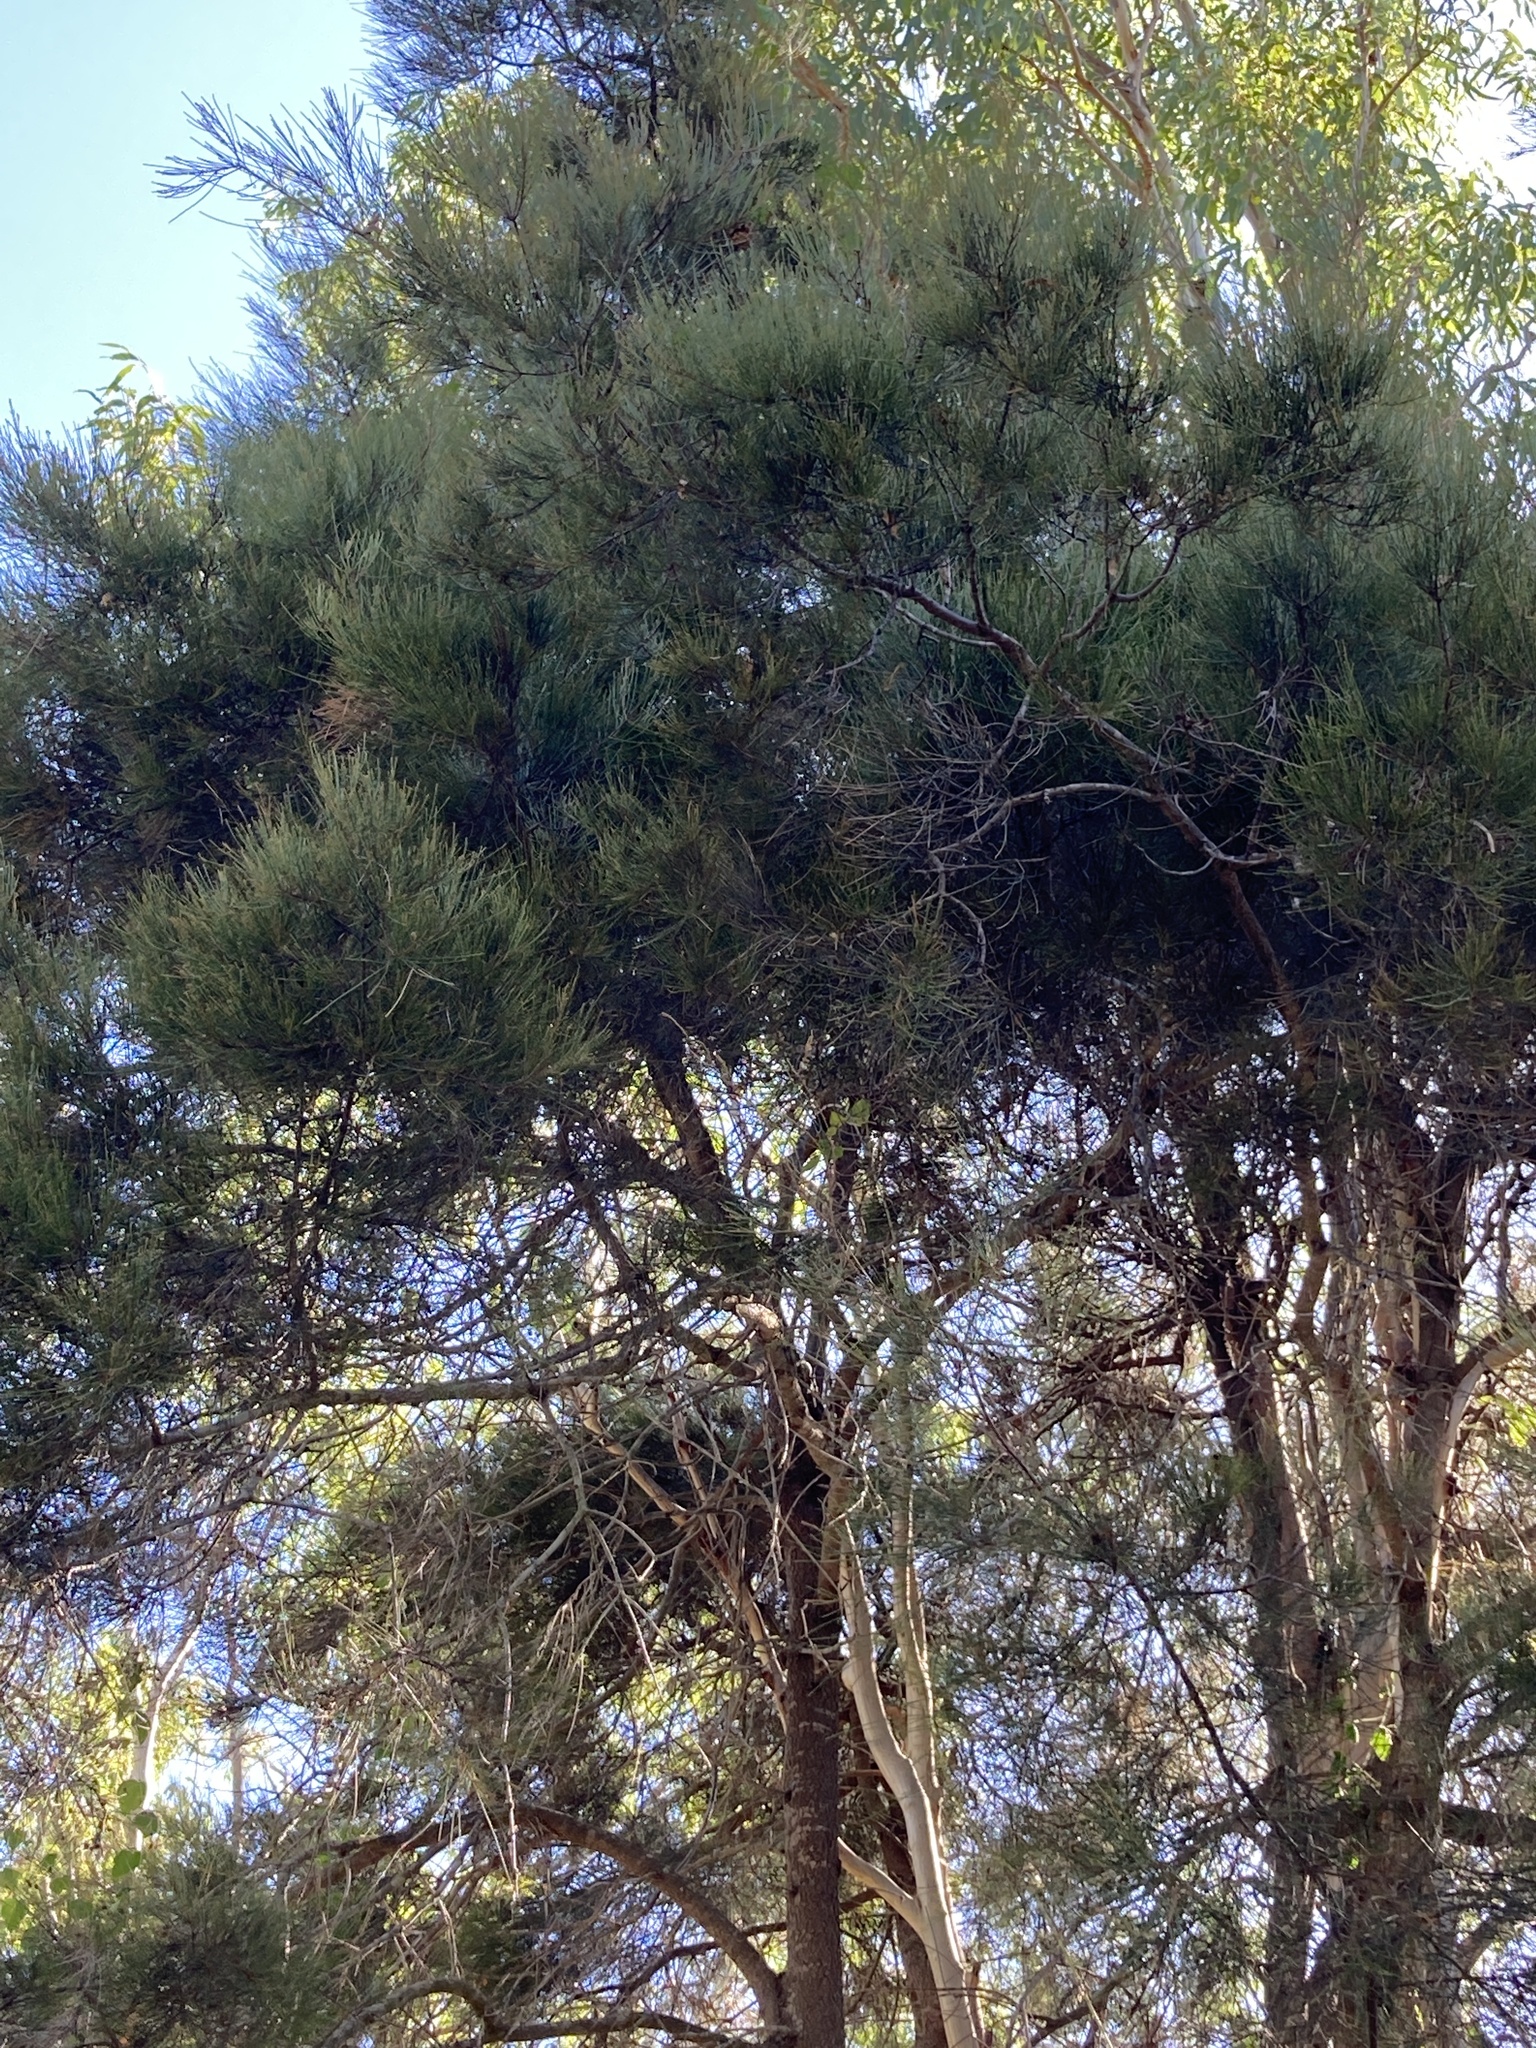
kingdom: Plantae
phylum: Tracheophyta
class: Magnoliopsida
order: Fagales
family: Casuarinaceae
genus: Casuarina
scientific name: Casuarina cristata
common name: Black-oak
